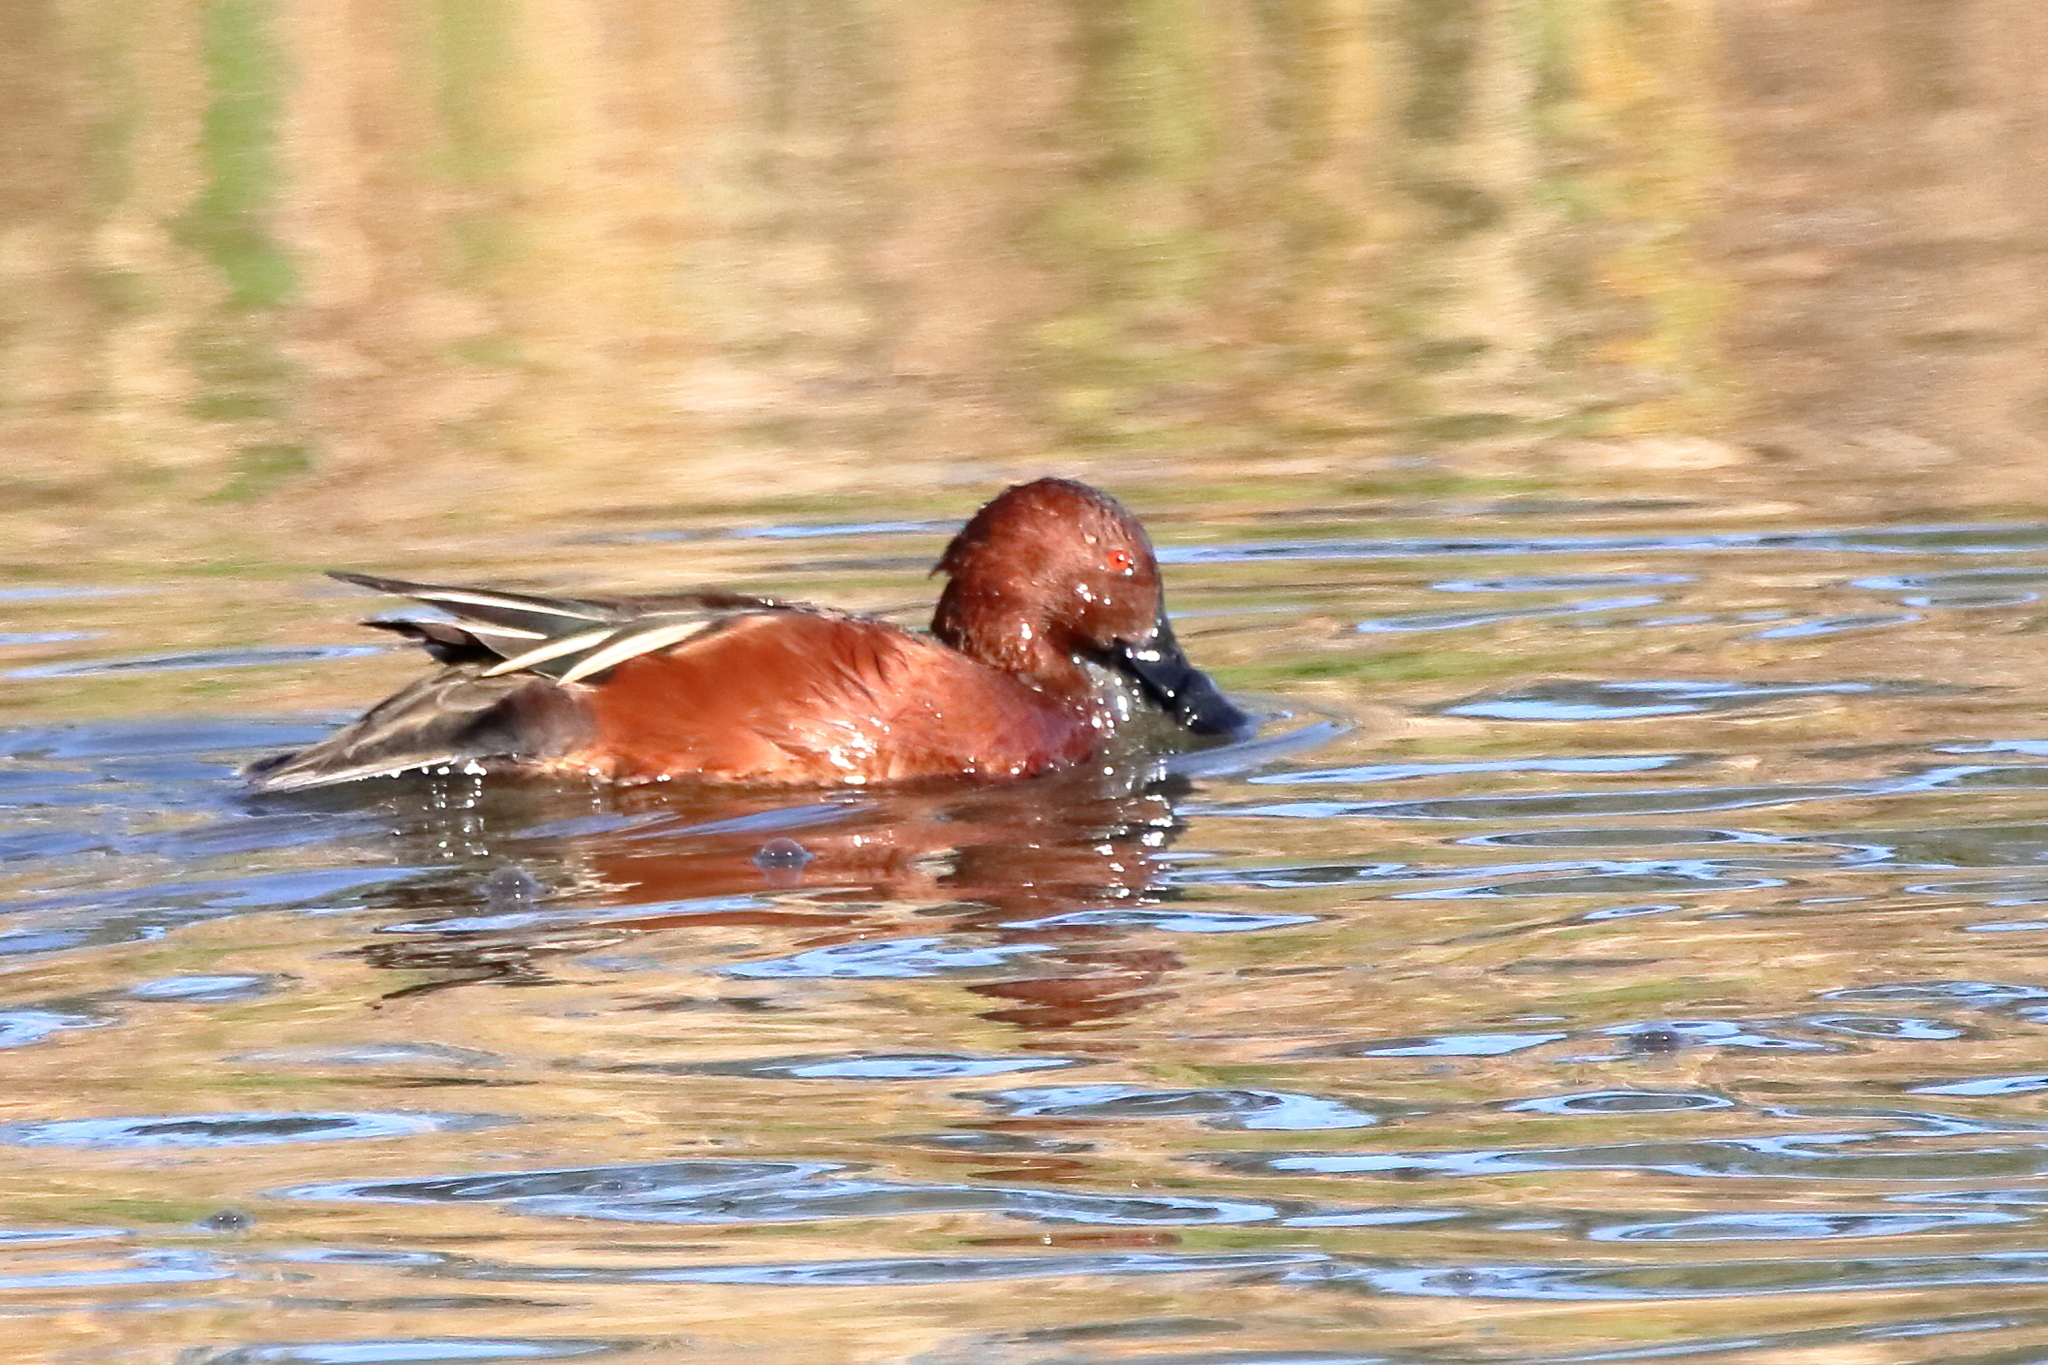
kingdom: Animalia
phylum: Chordata
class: Aves
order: Anseriformes
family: Anatidae
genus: Spatula
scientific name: Spatula cyanoptera
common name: Cinnamon teal
